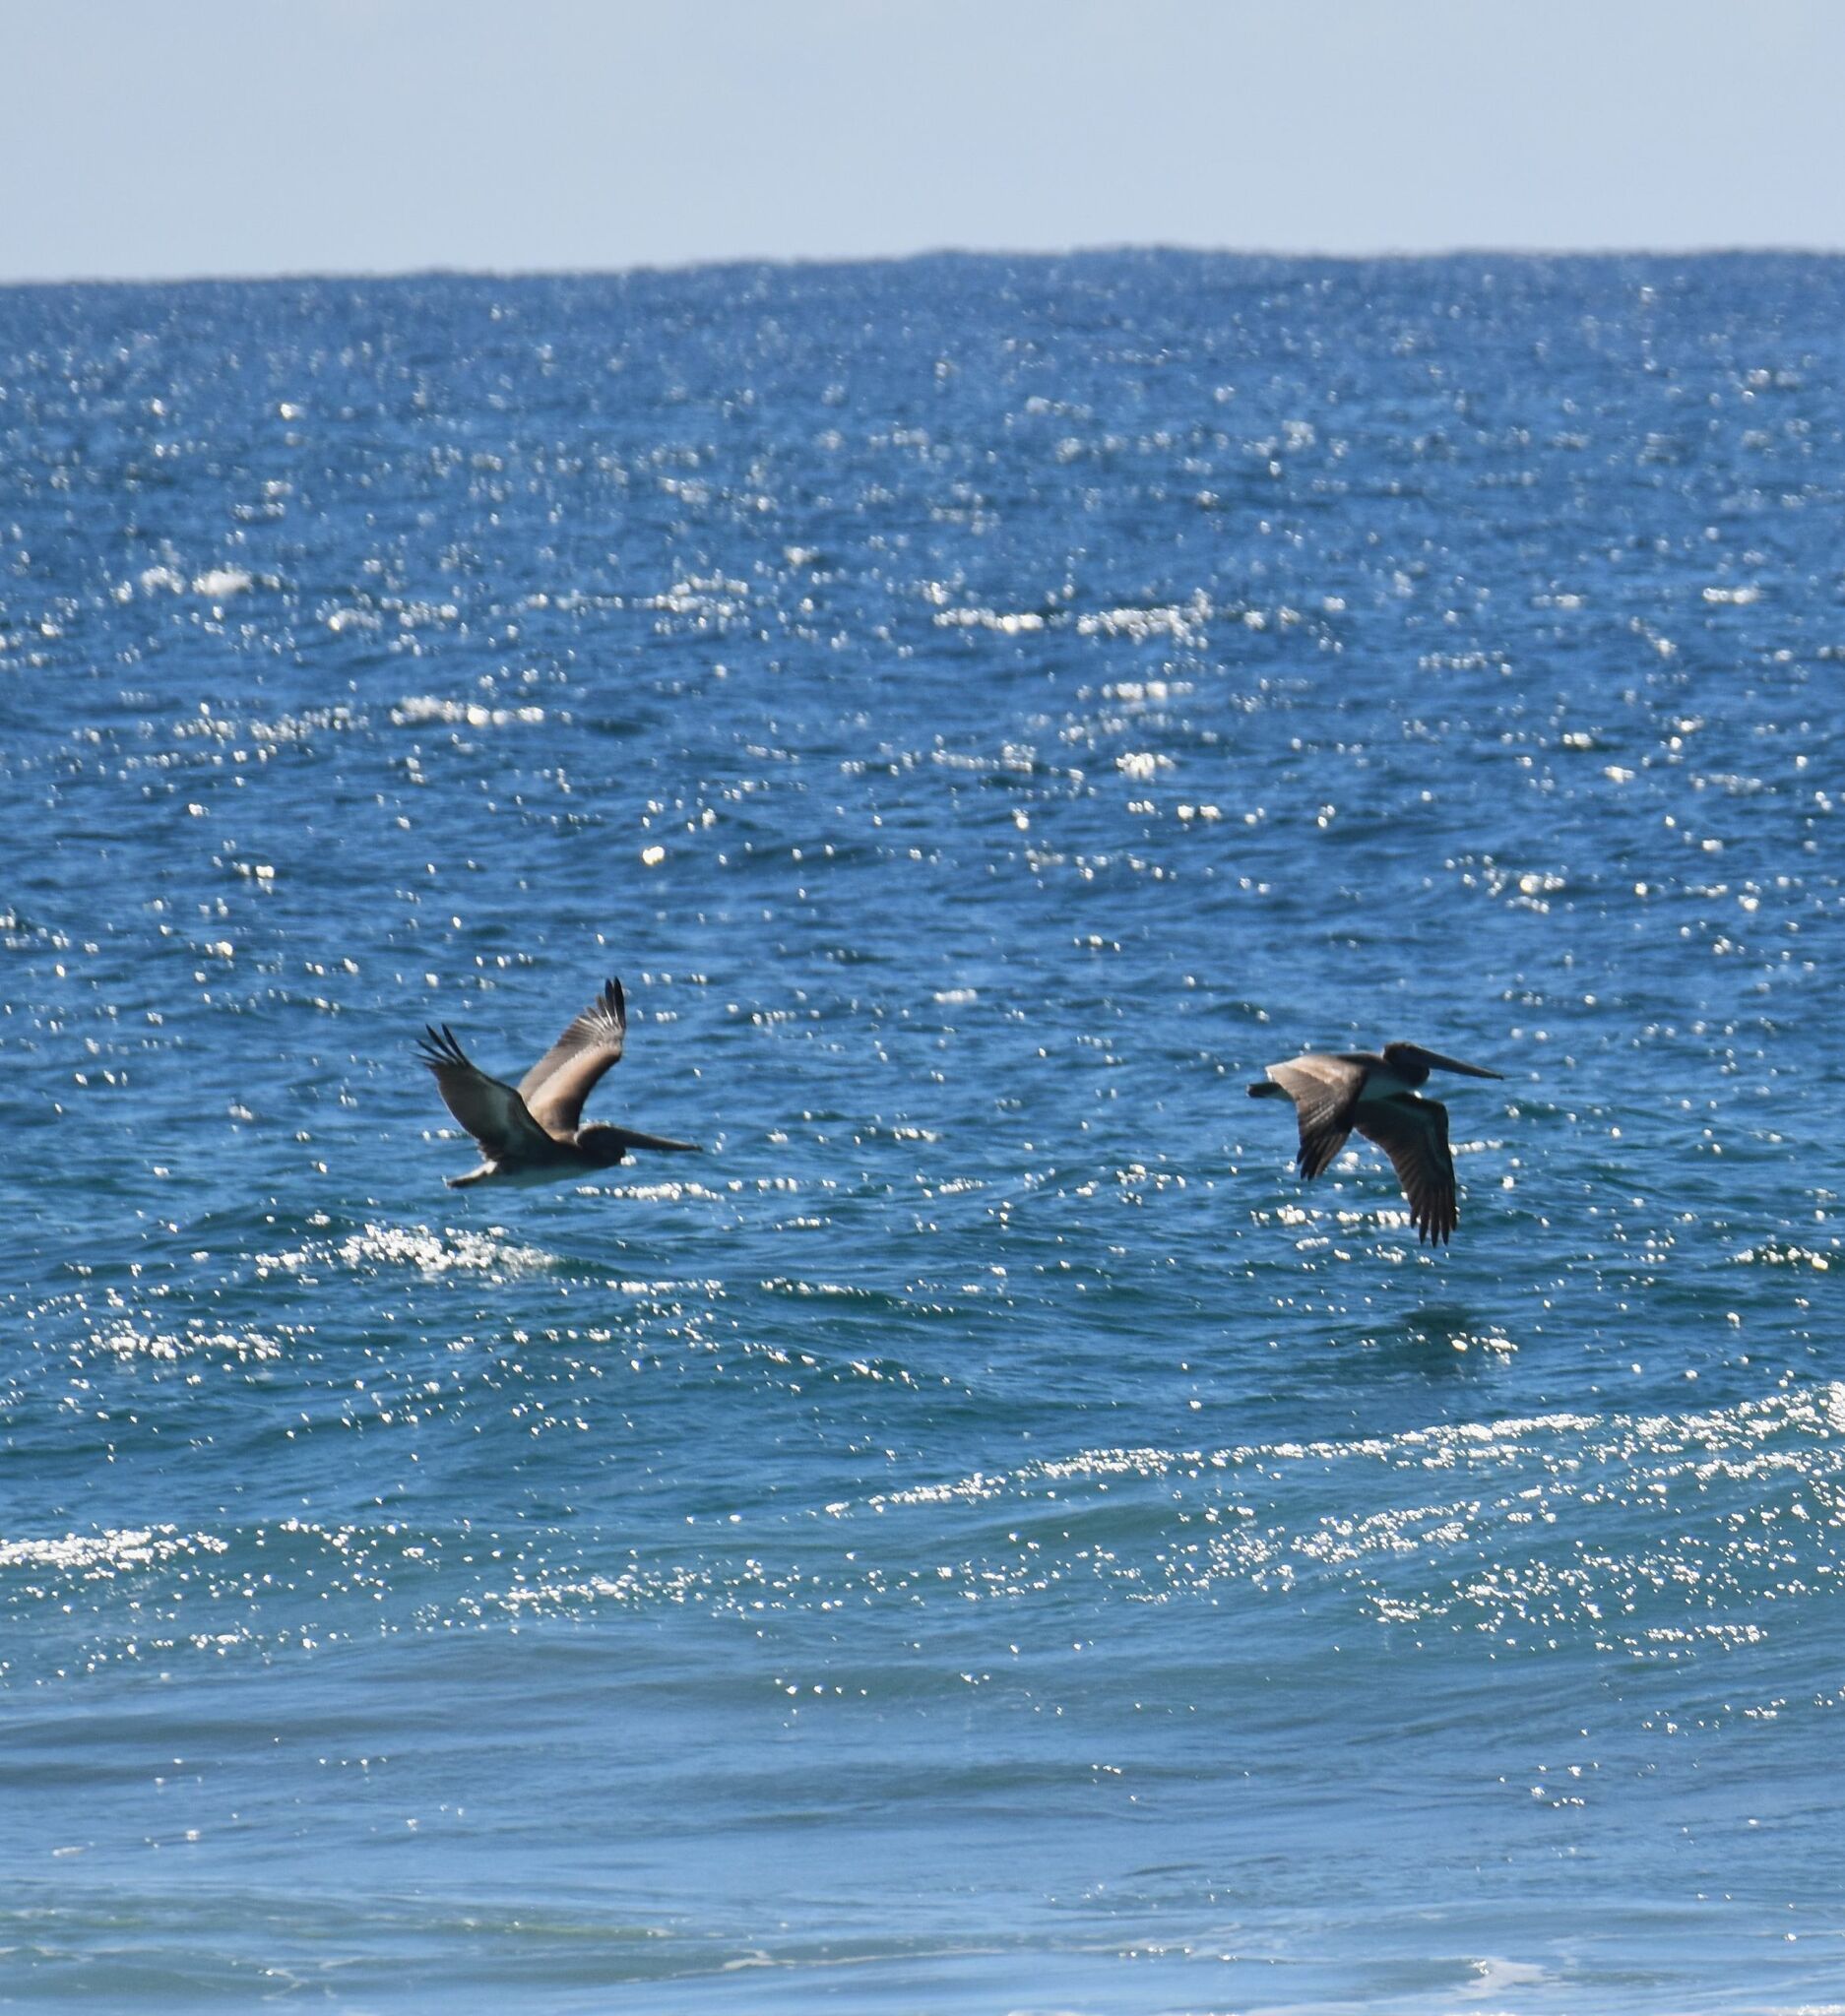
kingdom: Animalia
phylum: Chordata
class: Aves
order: Pelecaniformes
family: Pelecanidae
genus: Pelecanus
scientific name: Pelecanus occidentalis
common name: Brown pelican
